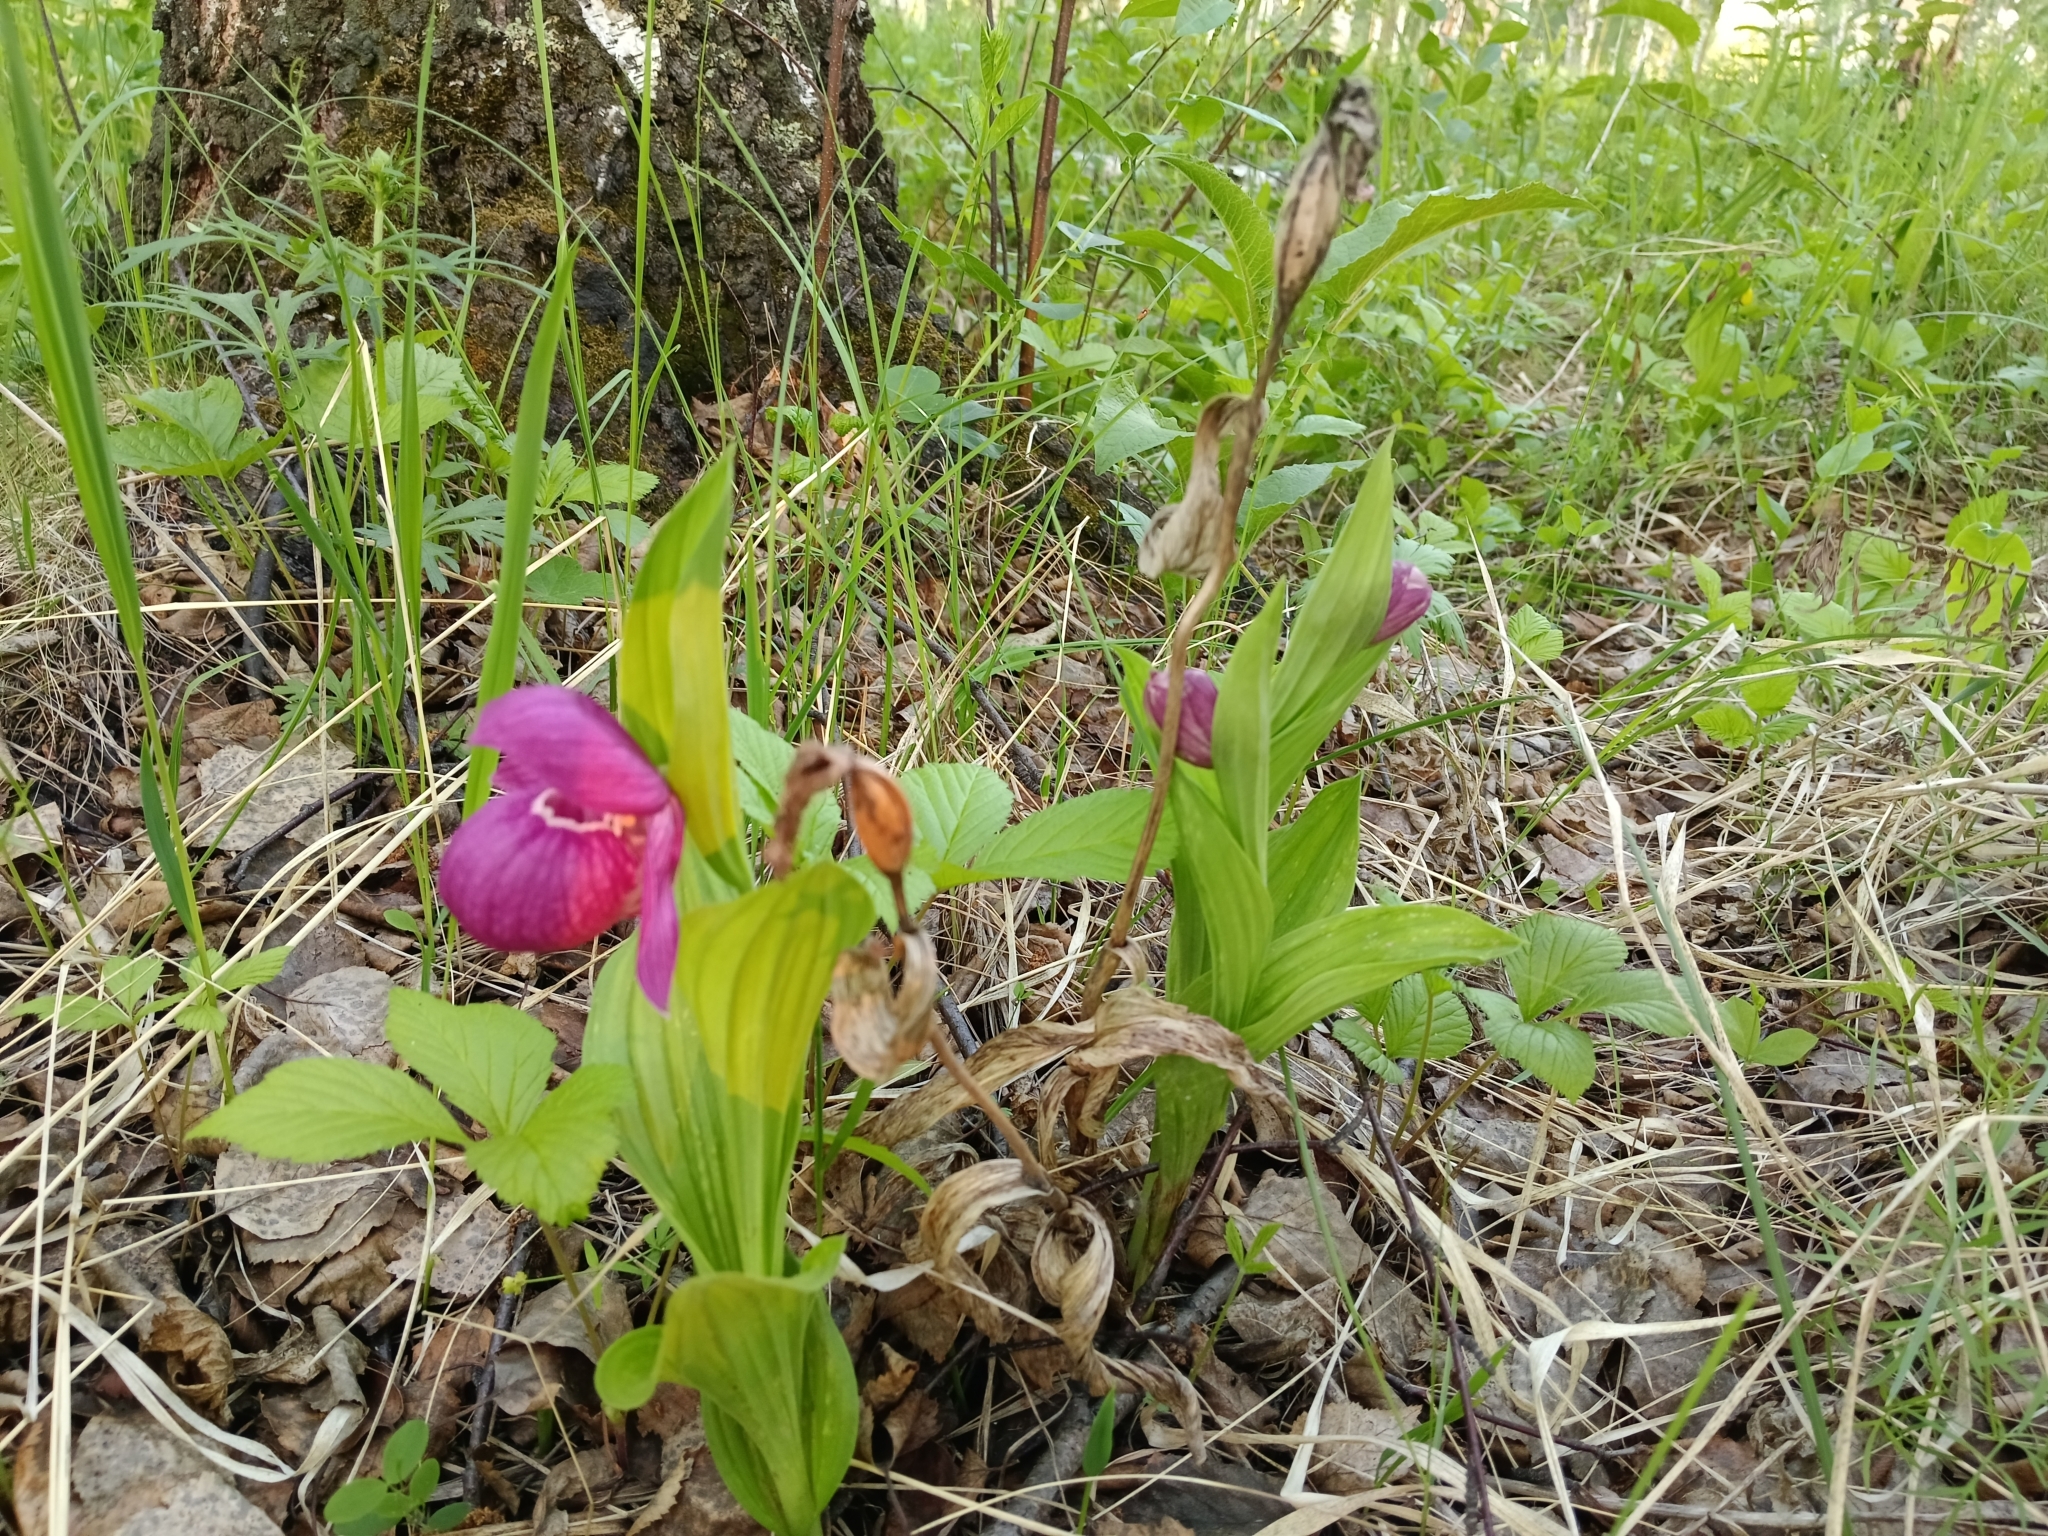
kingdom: Plantae
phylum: Tracheophyta
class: Liliopsida
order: Asparagales
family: Orchidaceae
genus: Cypripedium
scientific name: Cypripedium macranthos
